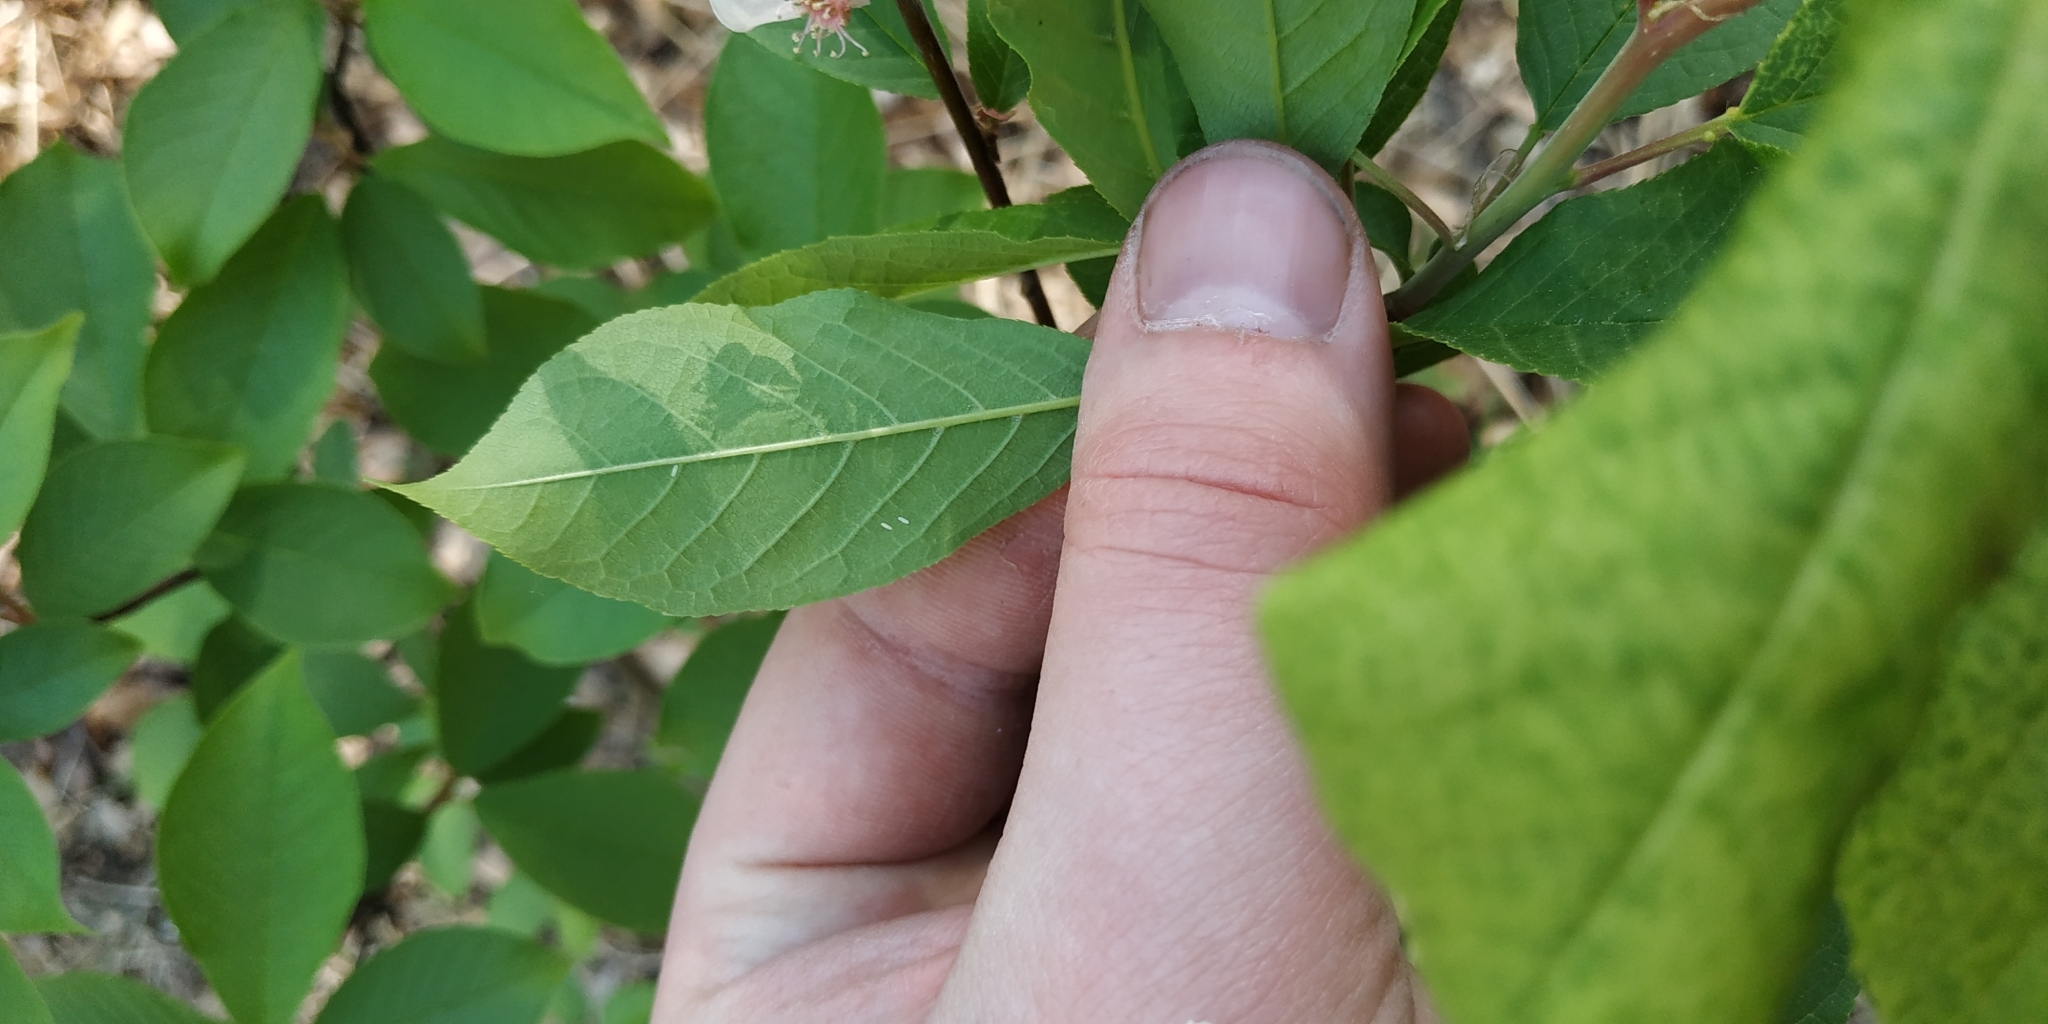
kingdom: Plantae
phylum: Tracheophyta
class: Magnoliopsida
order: Rosales
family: Rosaceae
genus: Prunus
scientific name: Prunus padus
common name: Bird cherry
